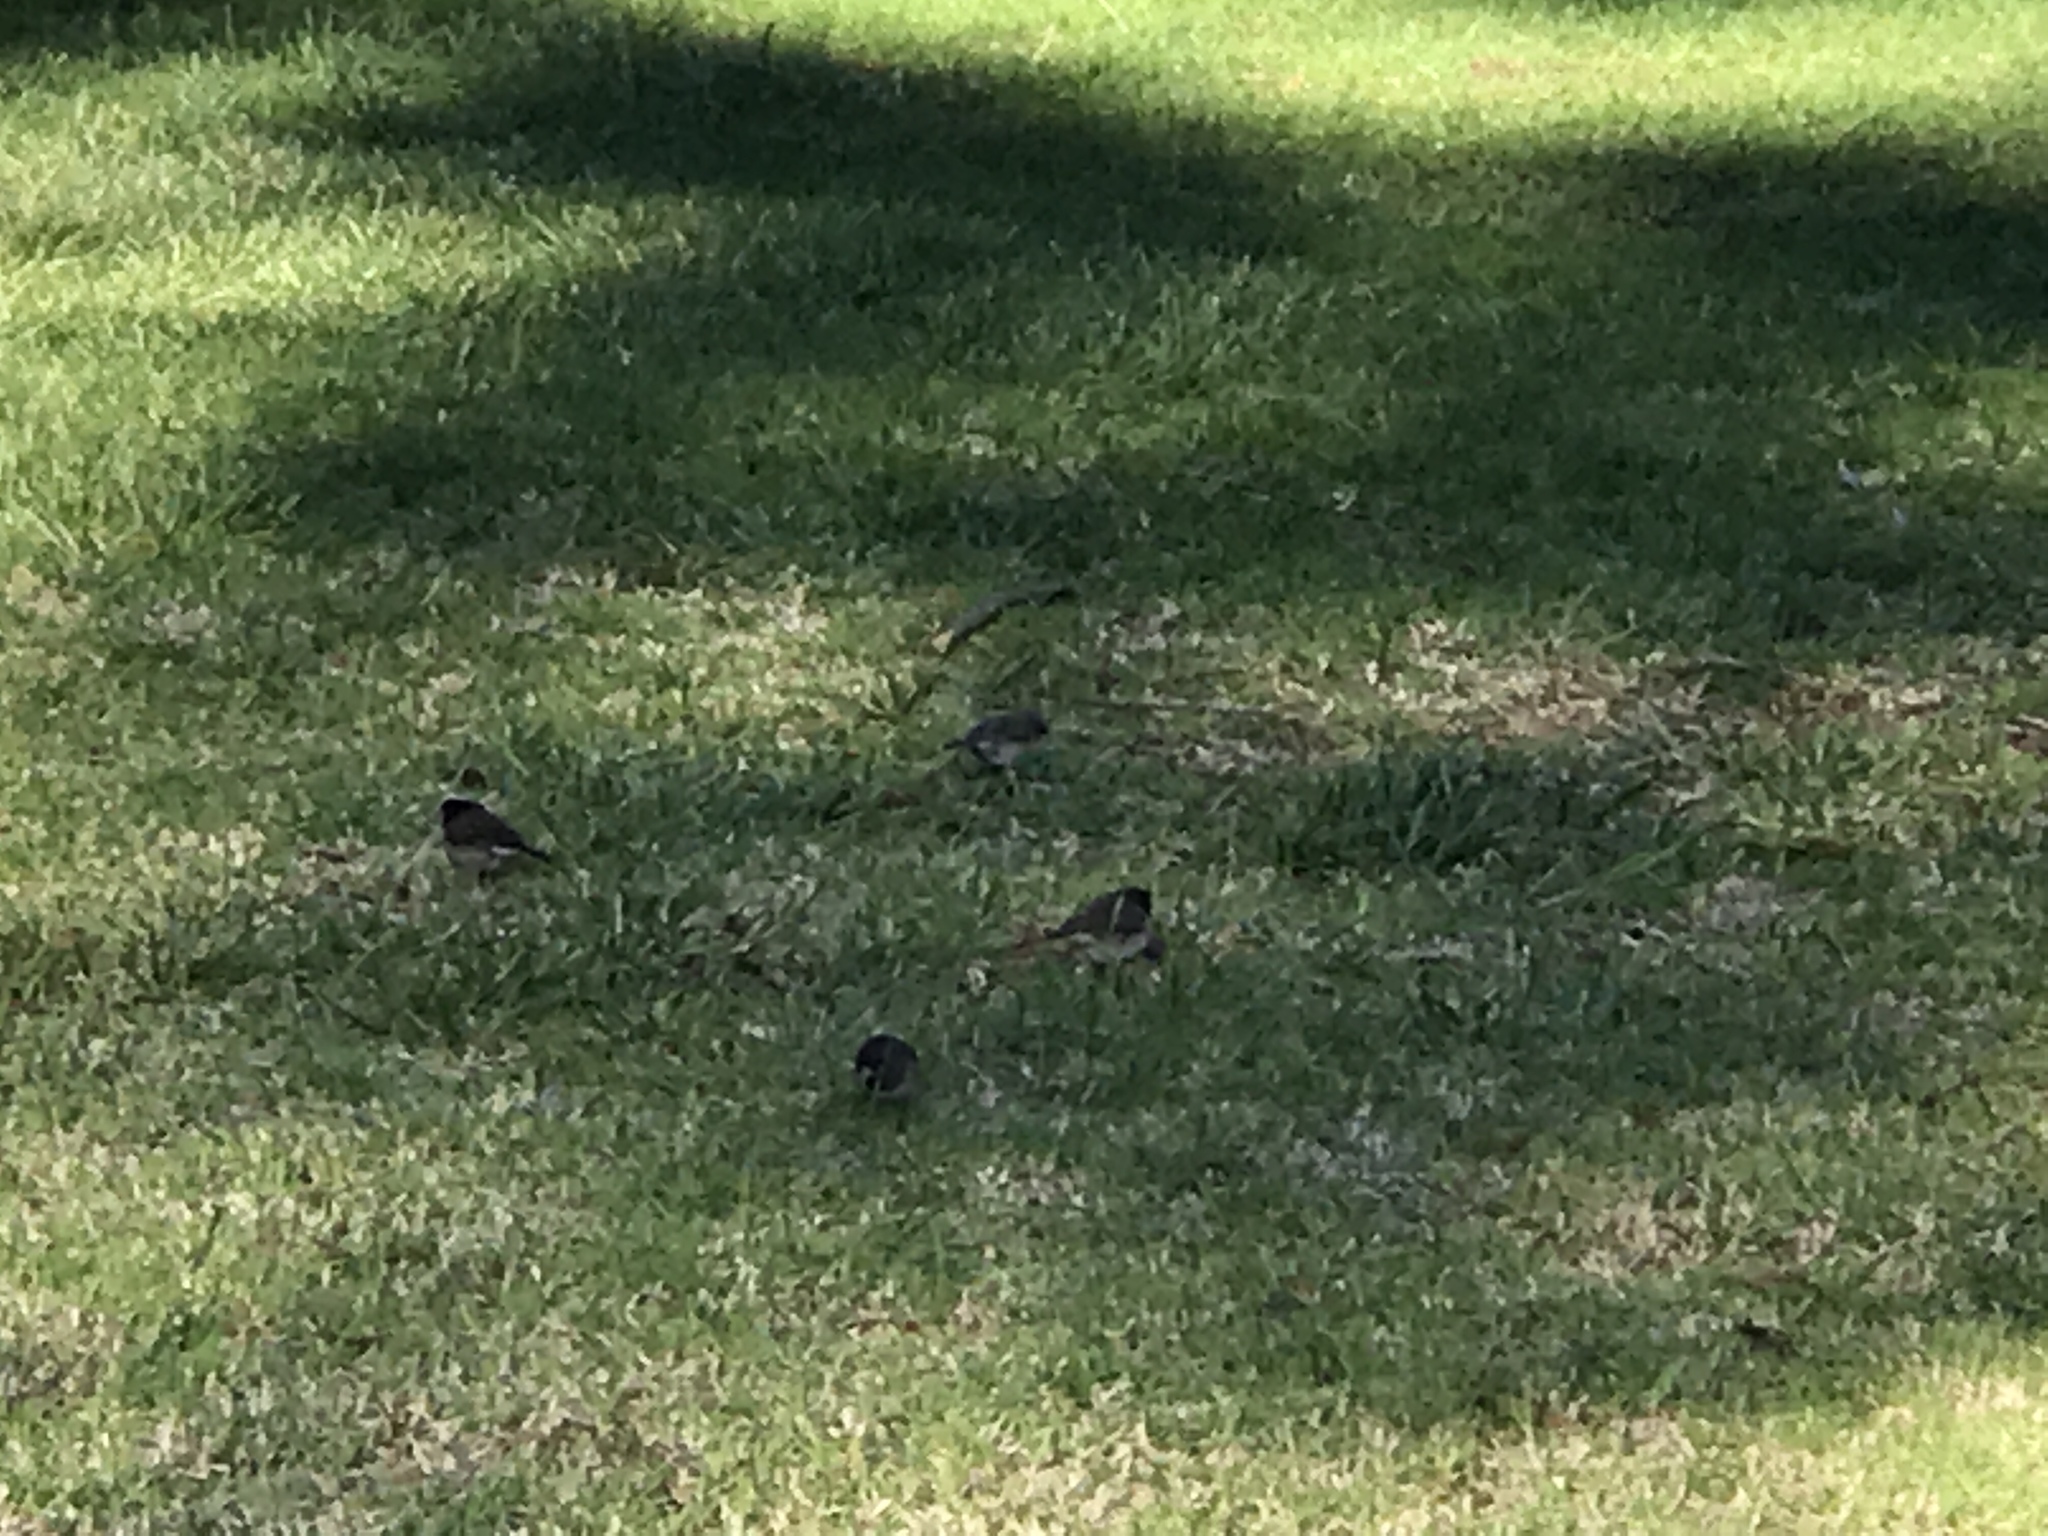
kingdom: Animalia
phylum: Chordata
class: Aves
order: Passeriformes
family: Passerellidae
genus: Junco
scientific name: Junco hyemalis
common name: Dark-eyed junco
